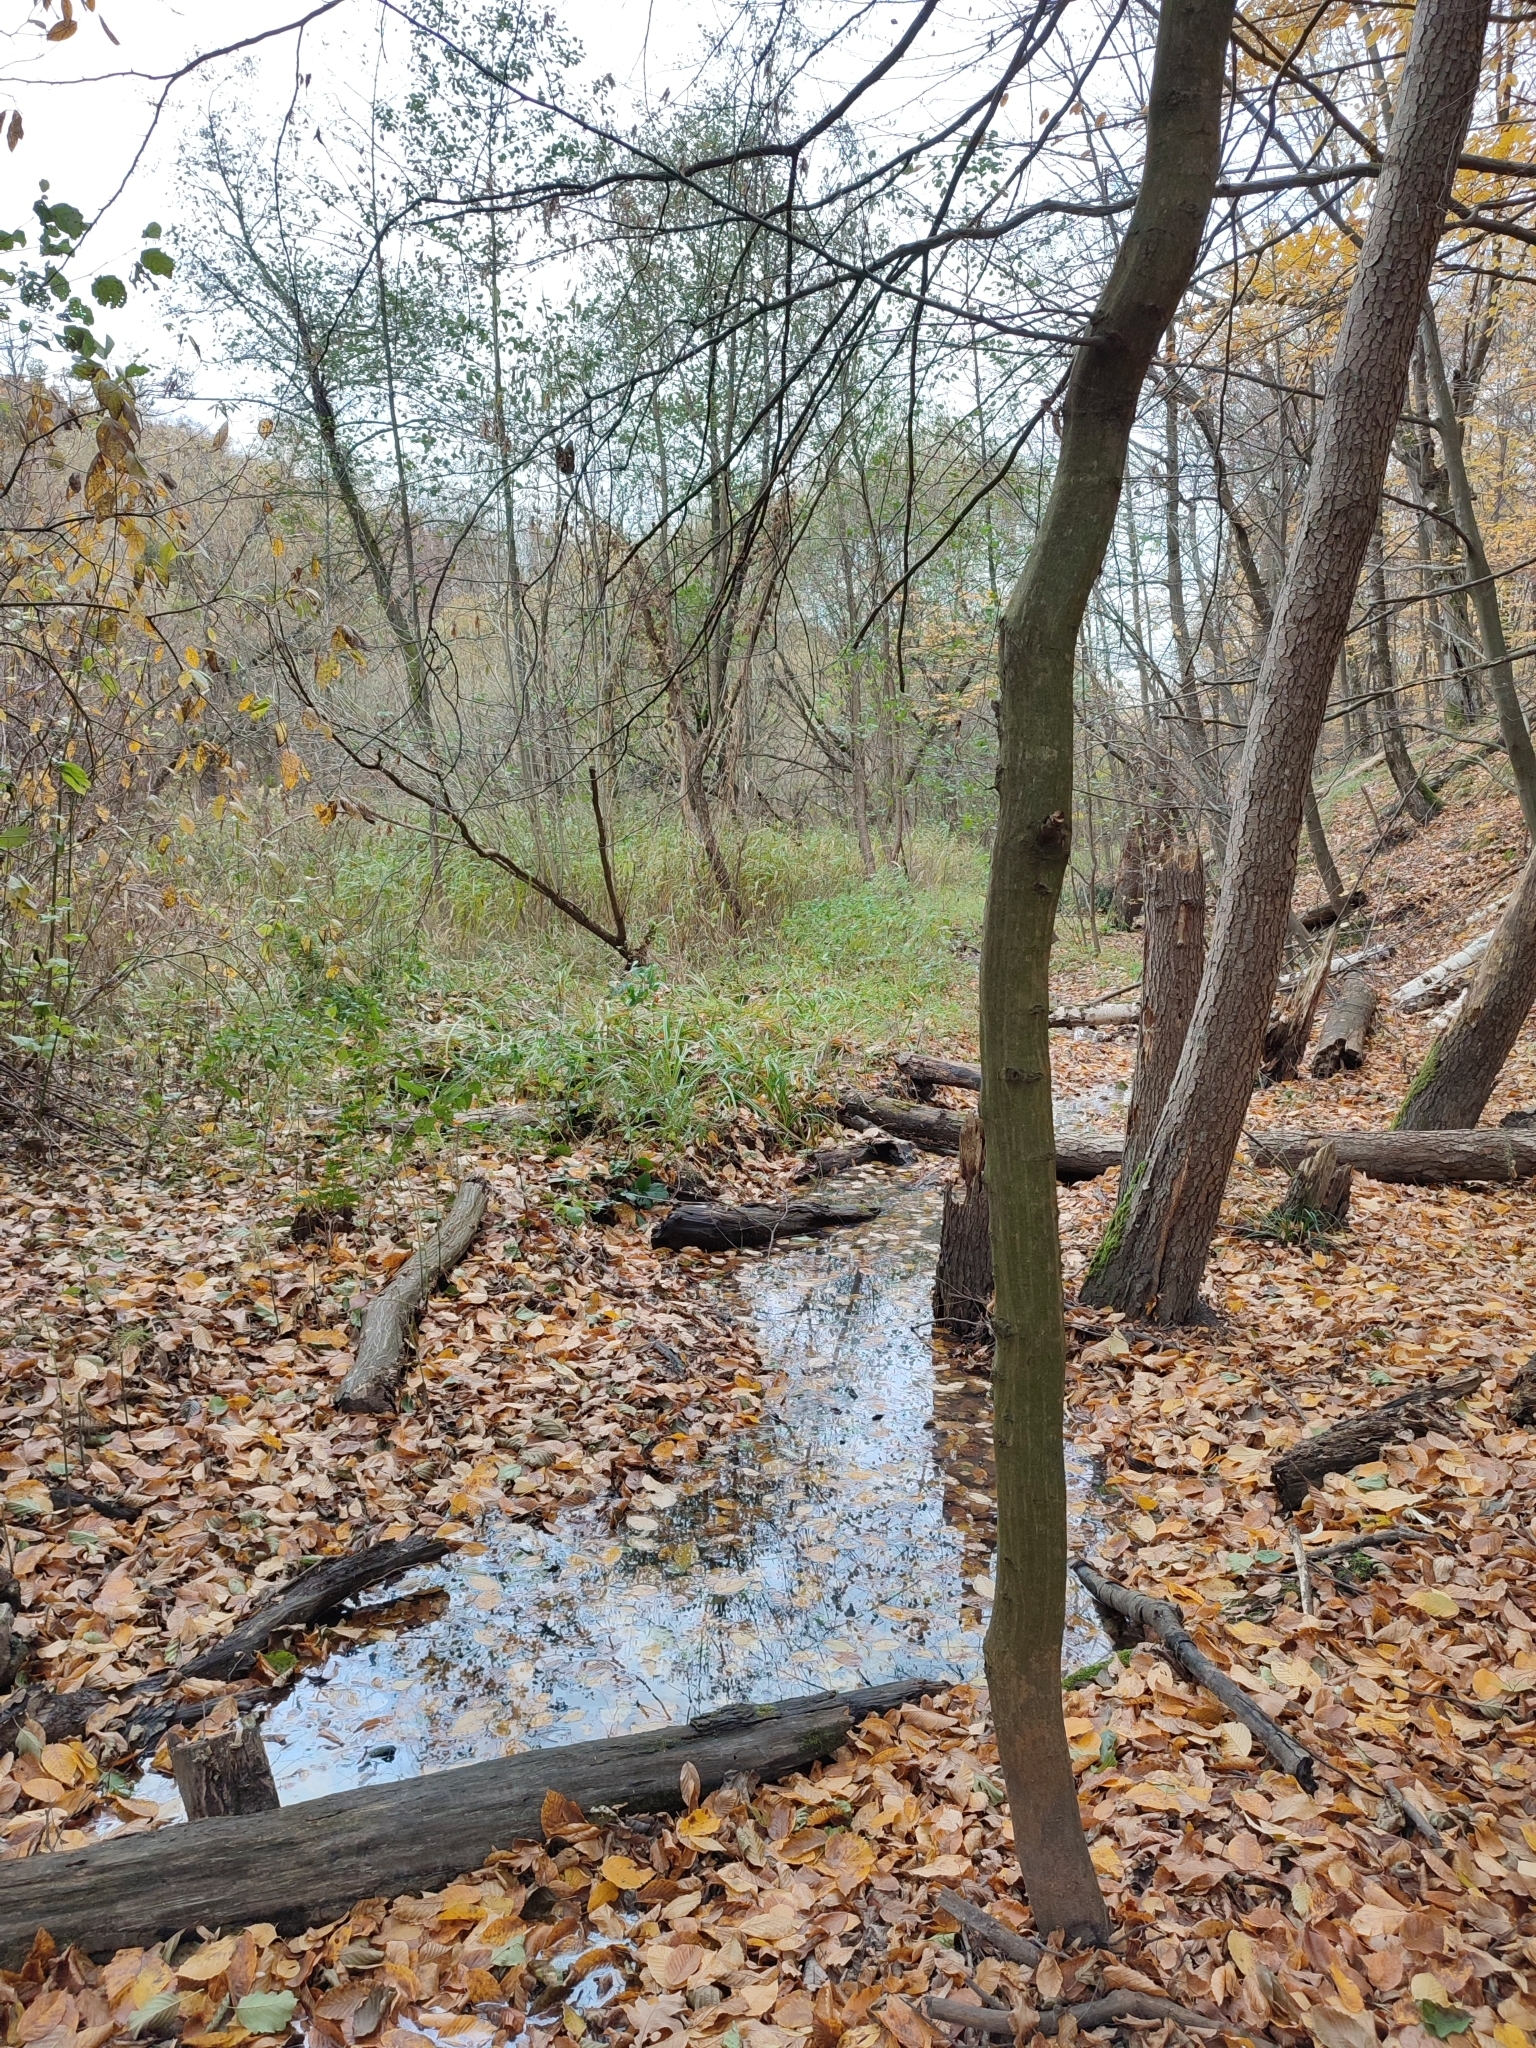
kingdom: Plantae
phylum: Tracheophyta
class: Magnoliopsida
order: Fagales
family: Betulaceae
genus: Carpinus
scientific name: Carpinus betulus
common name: Hornbeam
